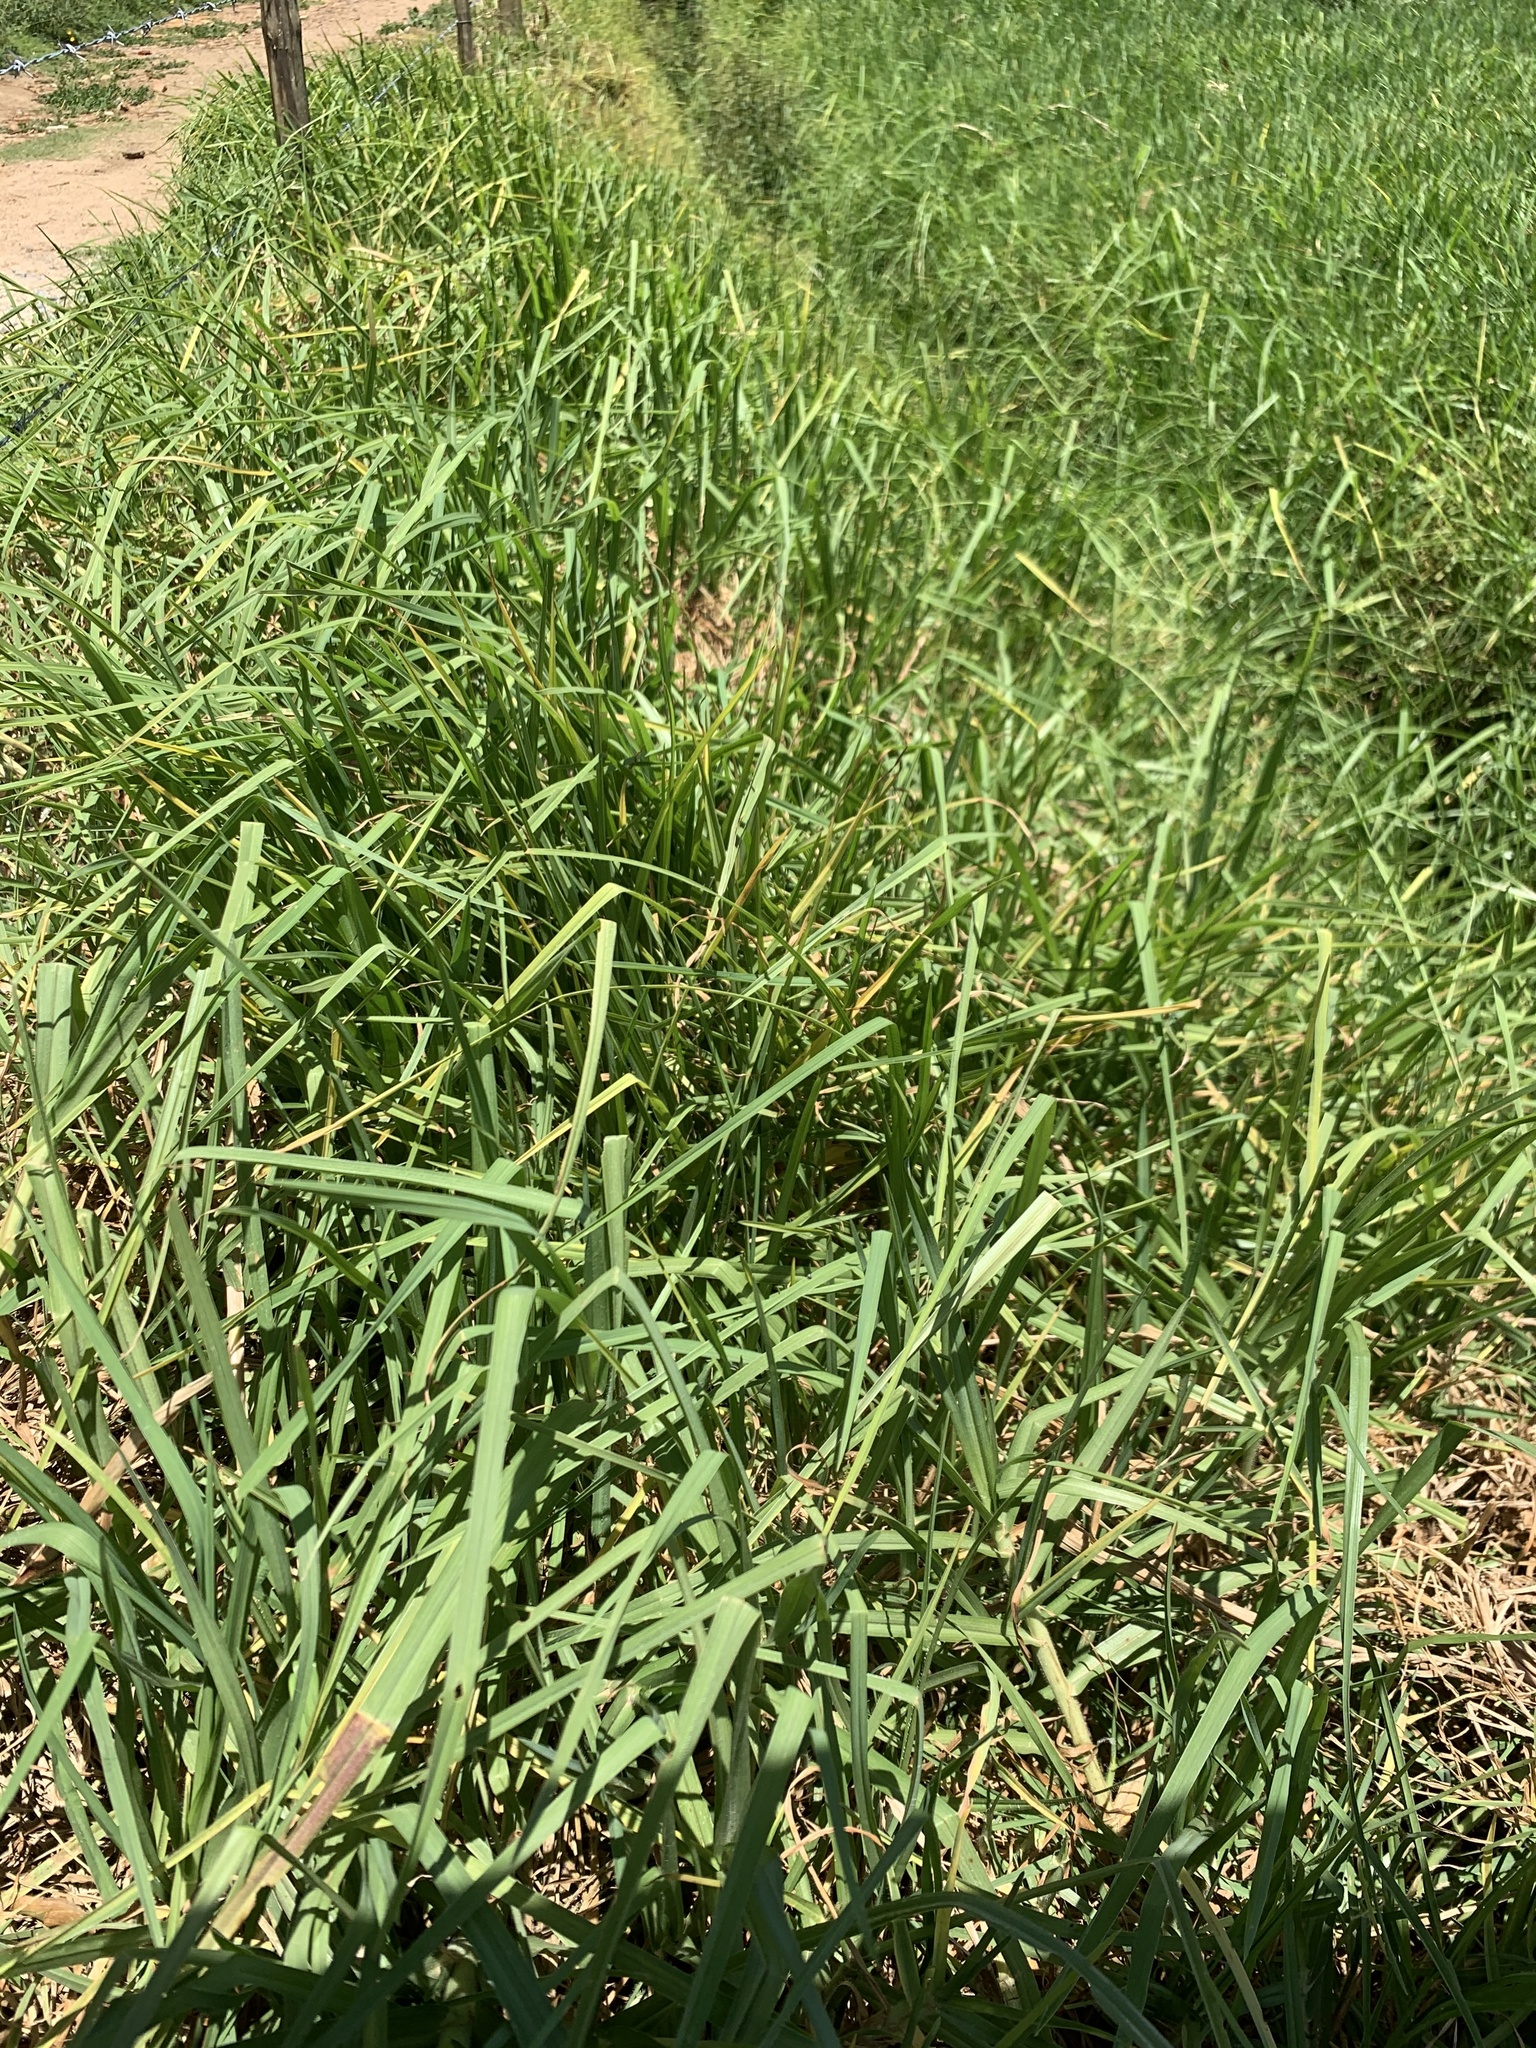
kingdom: Plantae
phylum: Tracheophyta
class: Liliopsida
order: Poales
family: Poaceae
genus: Cenchrus
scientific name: Cenchrus clandestinus
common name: Kikuyugrass
